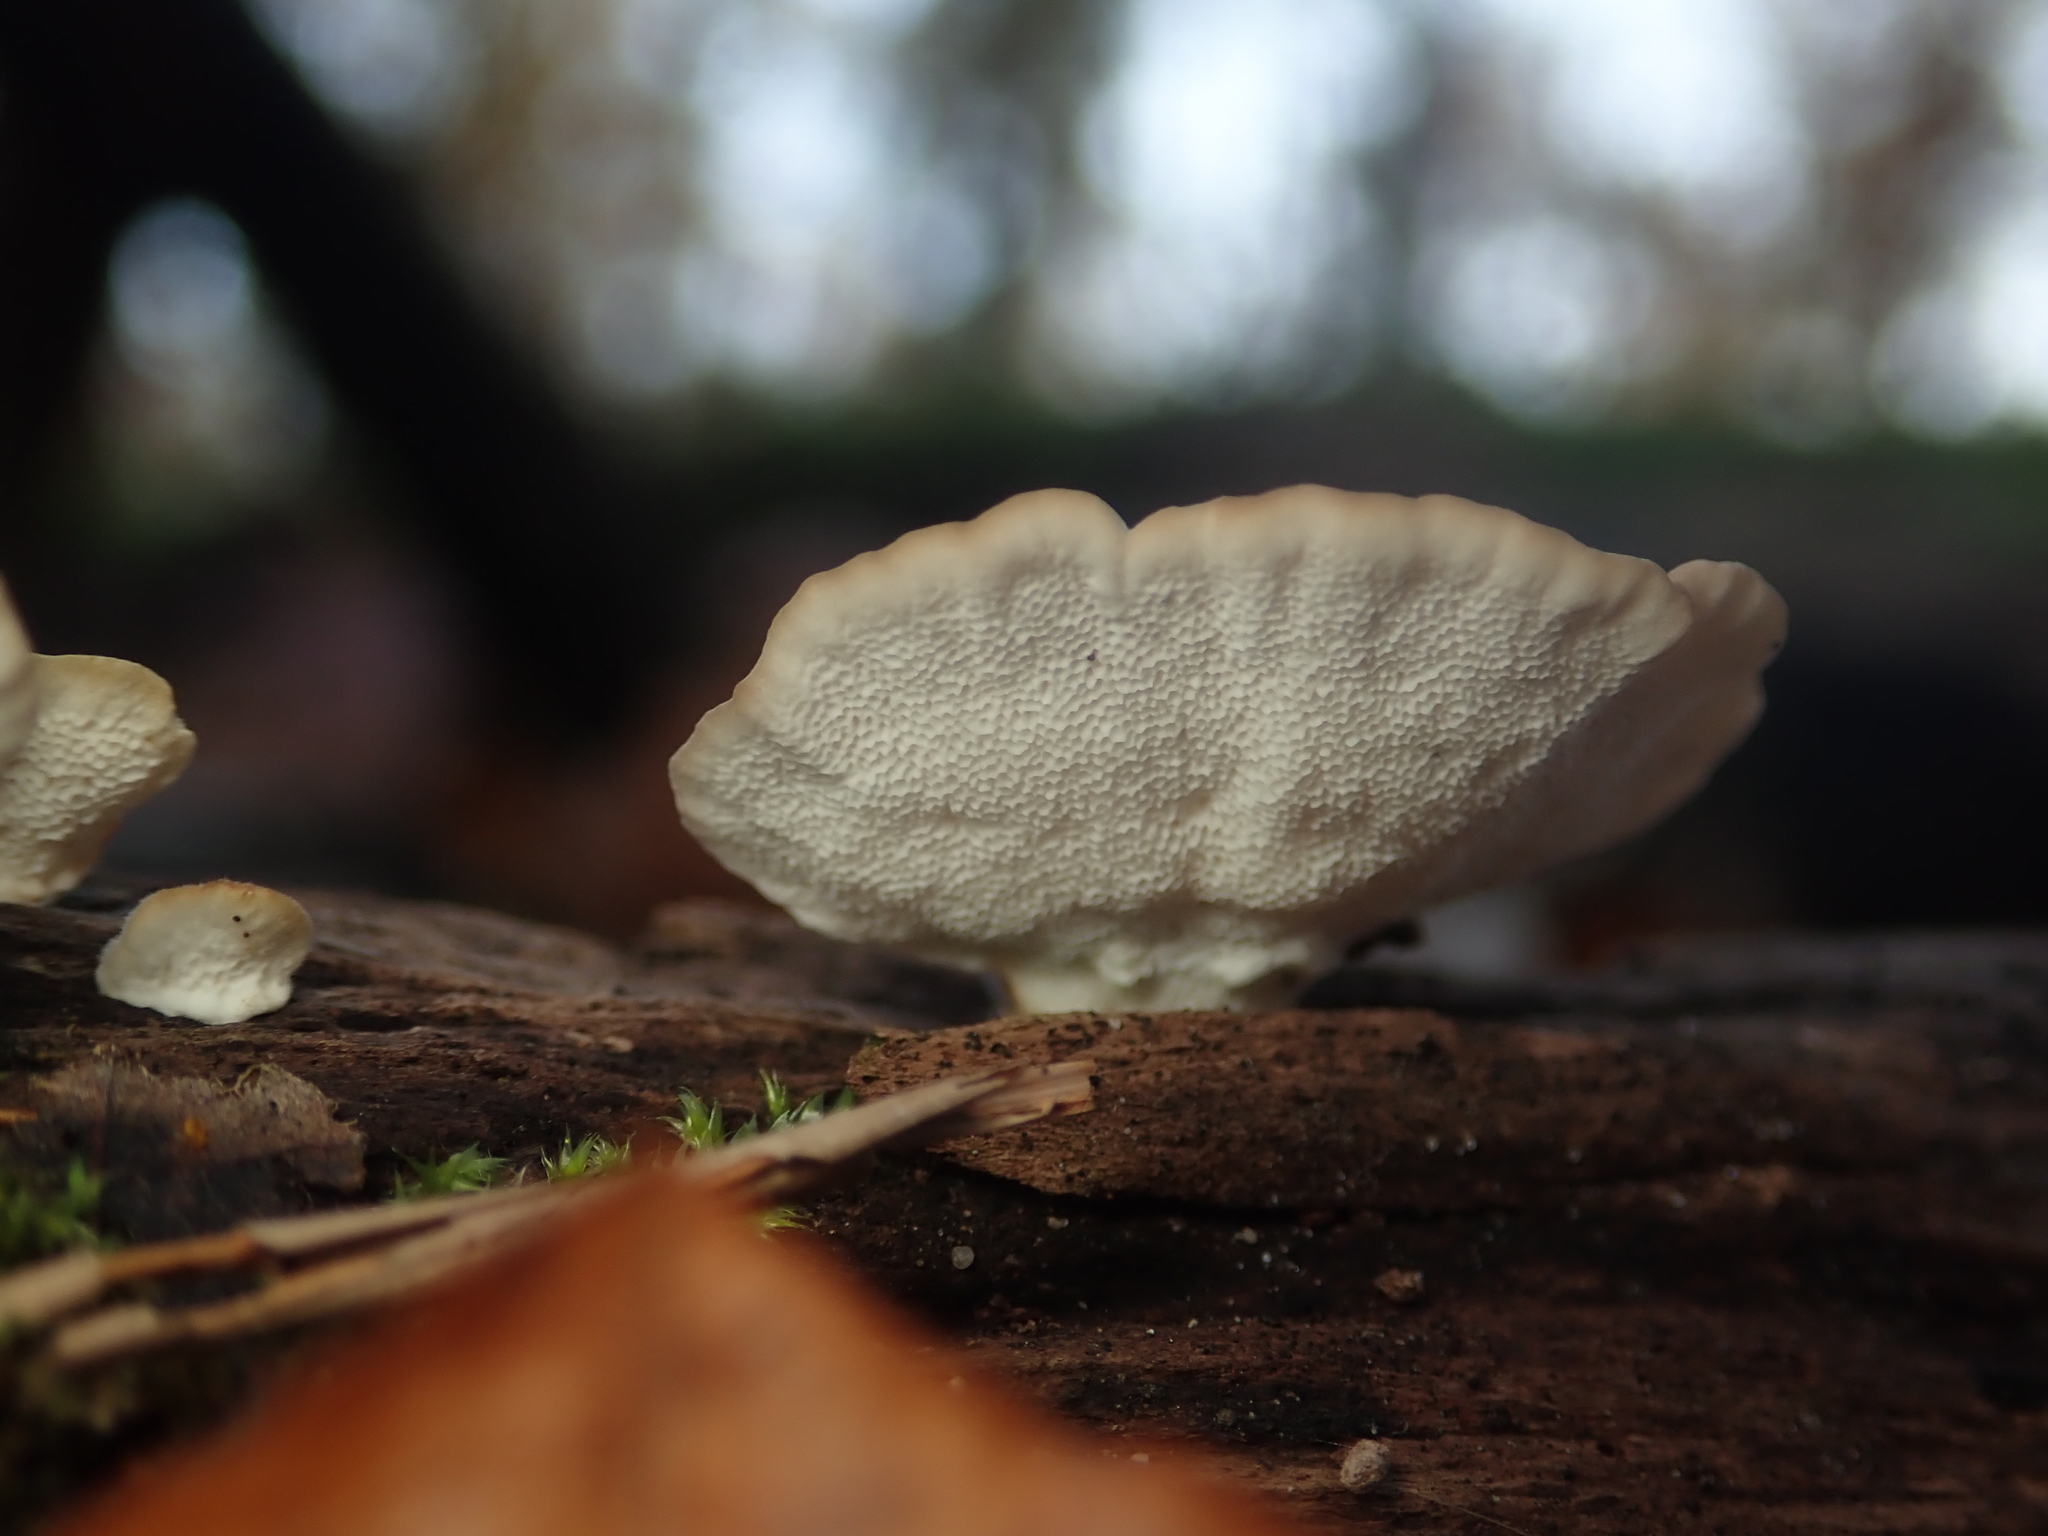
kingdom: Fungi
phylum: Basidiomycota
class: Agaricomycetes
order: Polyporales
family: Polyporaceae
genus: Trametes
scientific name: Trametes versicolor
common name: Turkeytail
